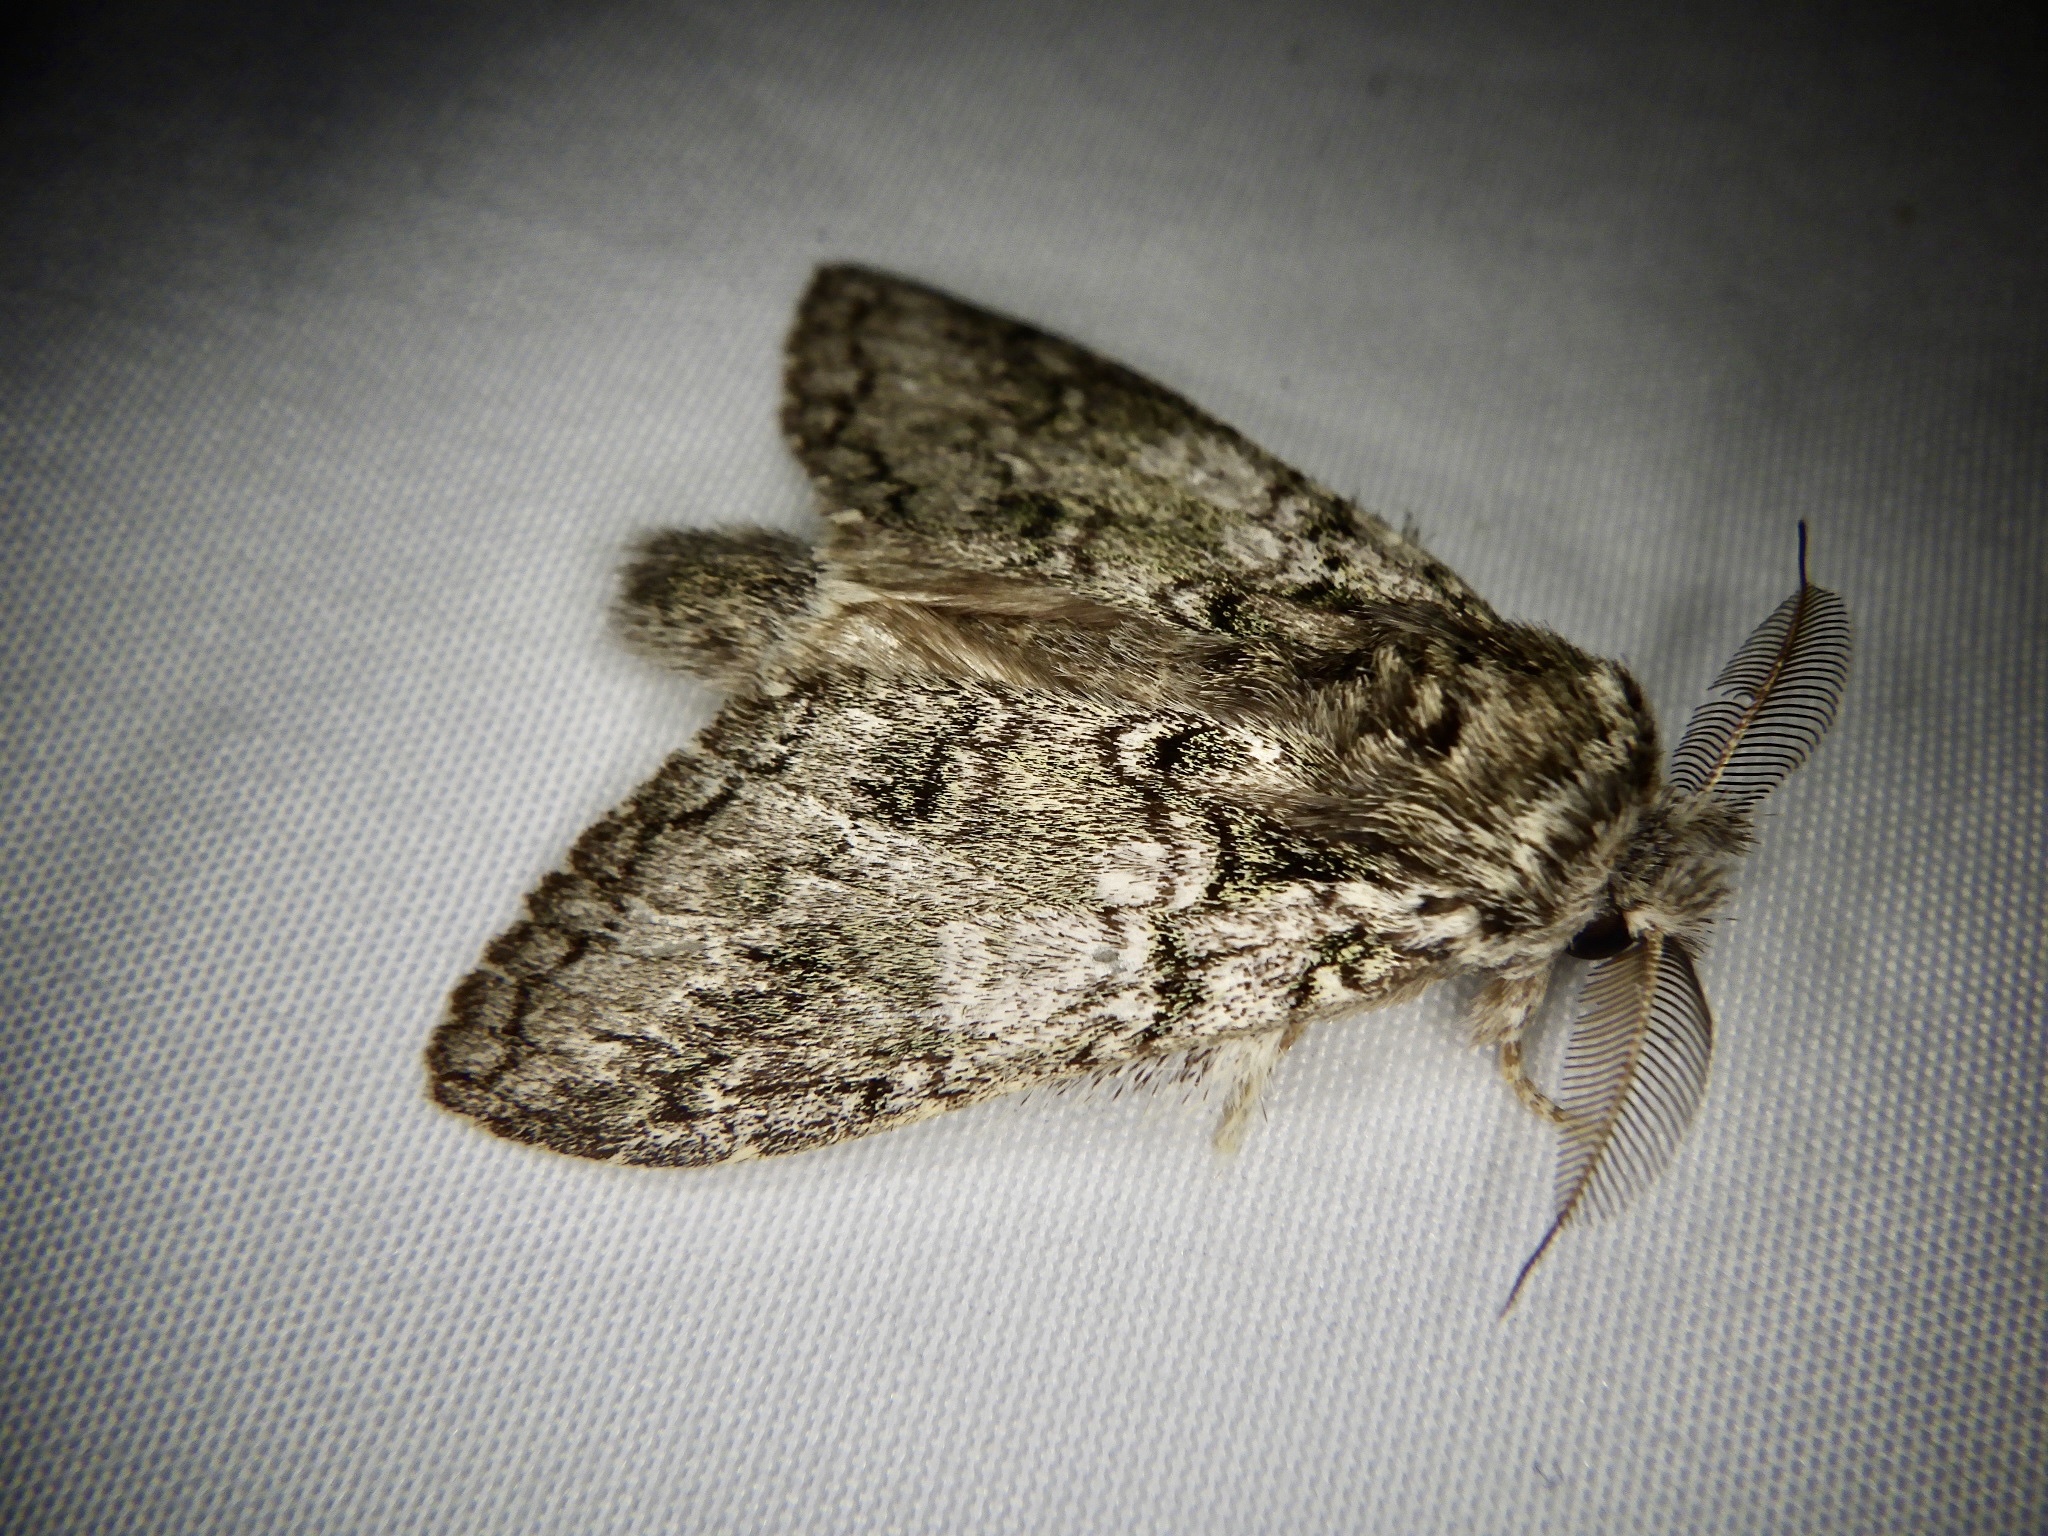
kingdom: Animalia
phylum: Arthropoda
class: Insecta
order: Lepidoptera
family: Notodontidae
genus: Syntypistis
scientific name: Syntypistis pryeri
